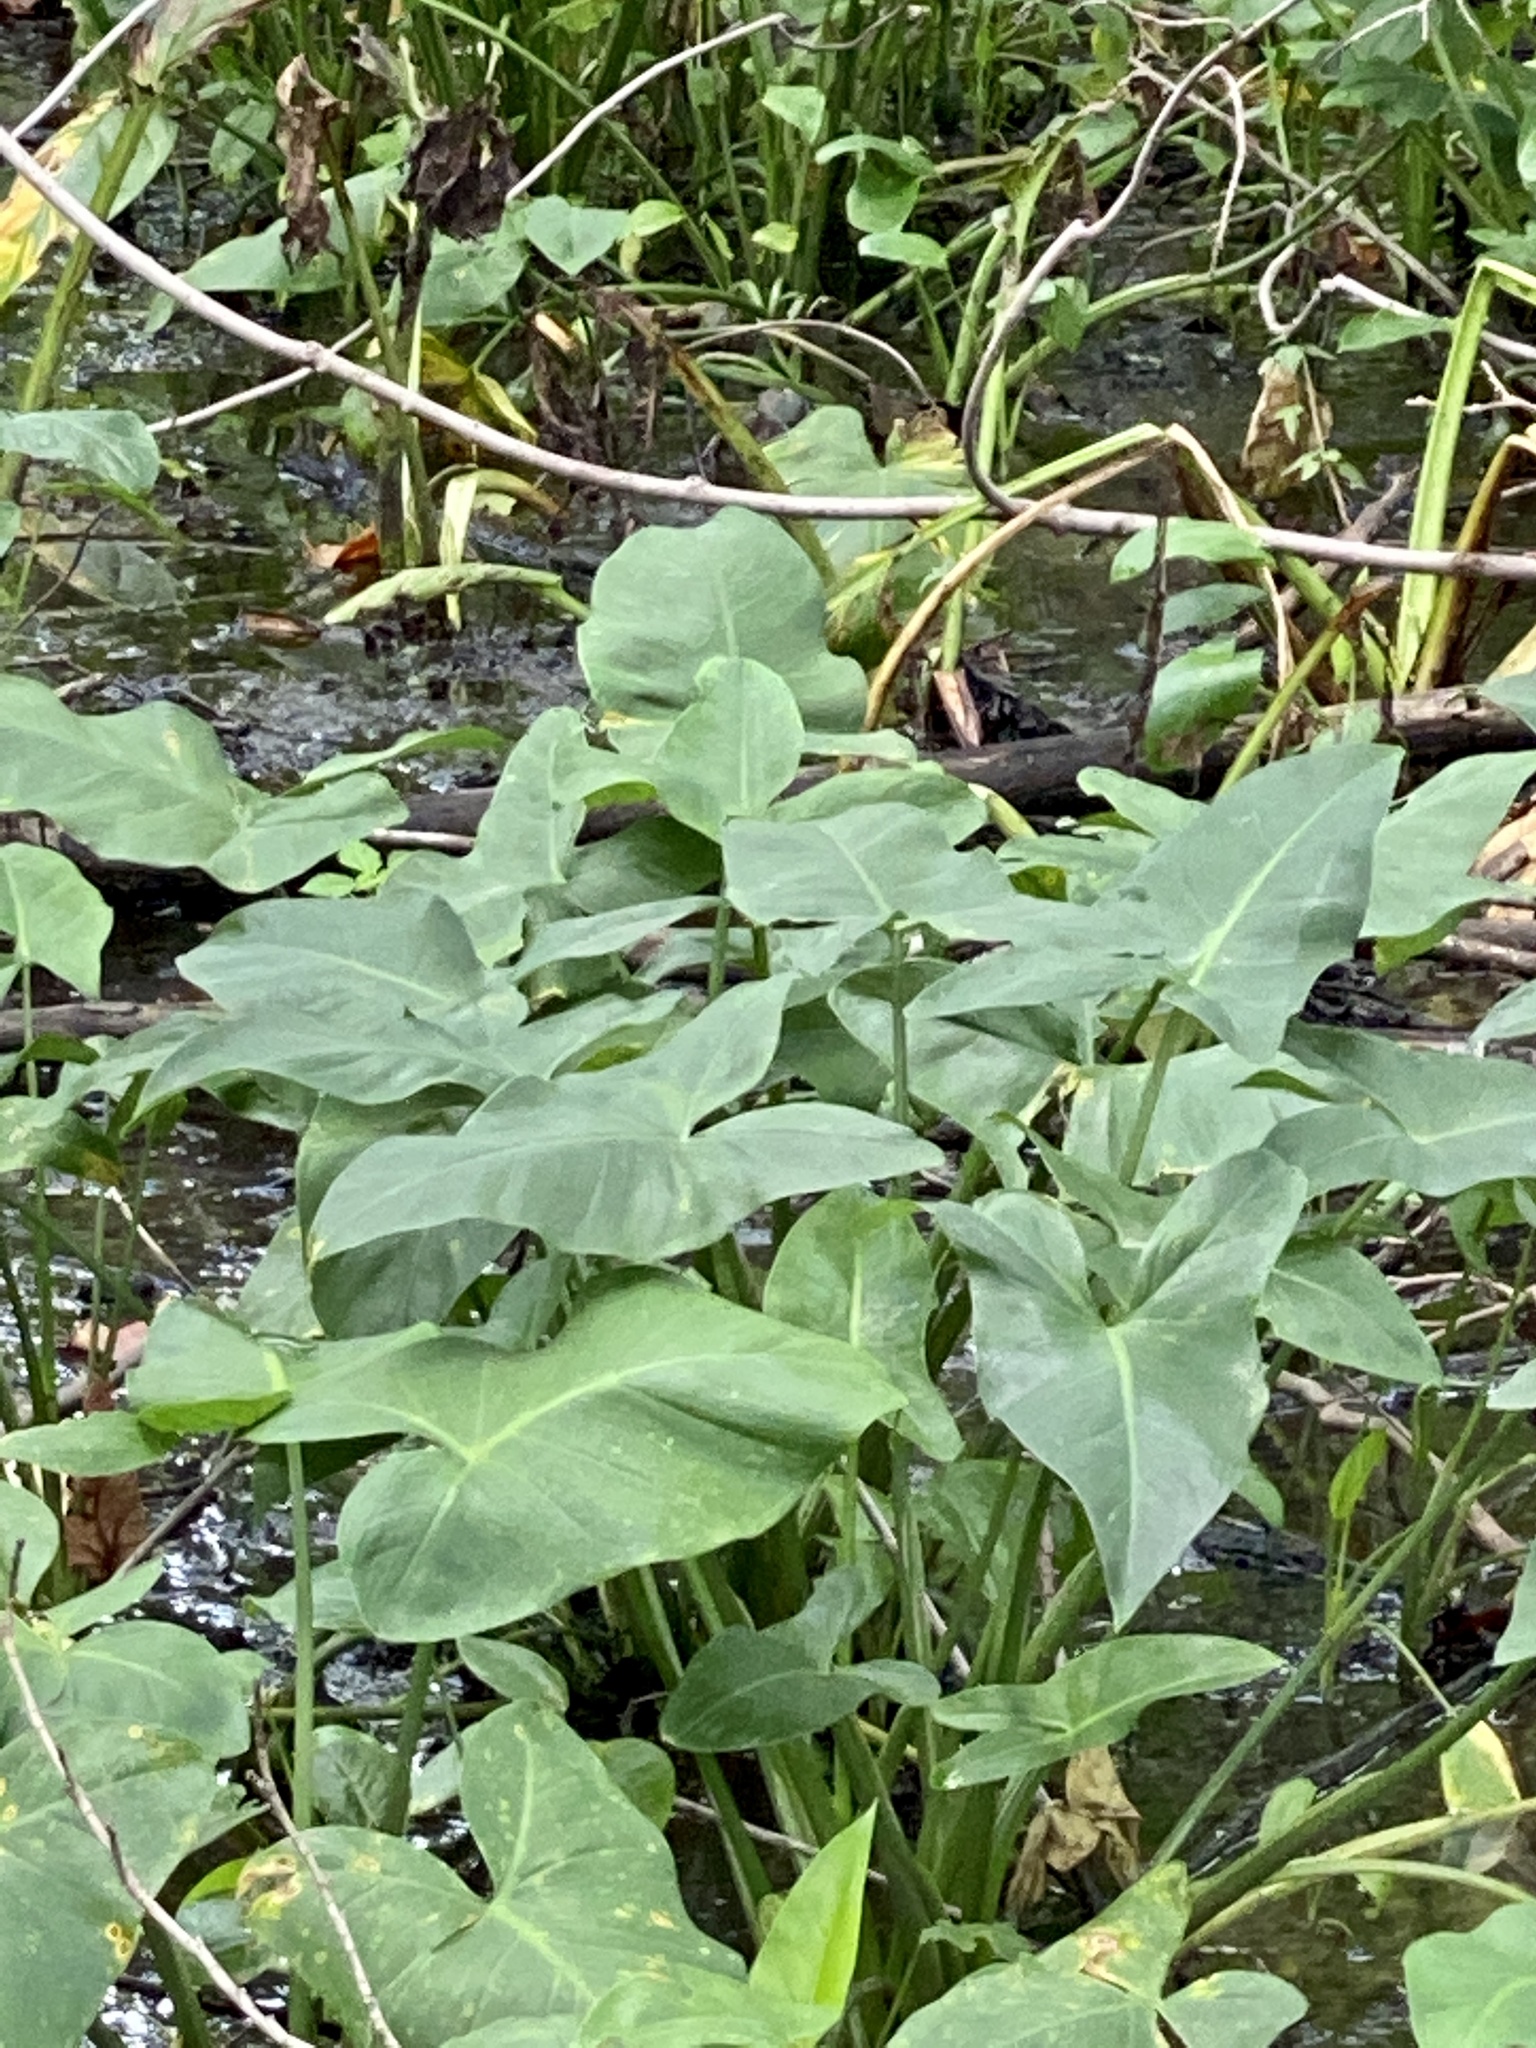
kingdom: Plantae
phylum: Tracheophyta
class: Liliopsida
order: Alismatales
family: Araceae
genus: Peltandra
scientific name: Peltandra virginica
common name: Arrow arum
